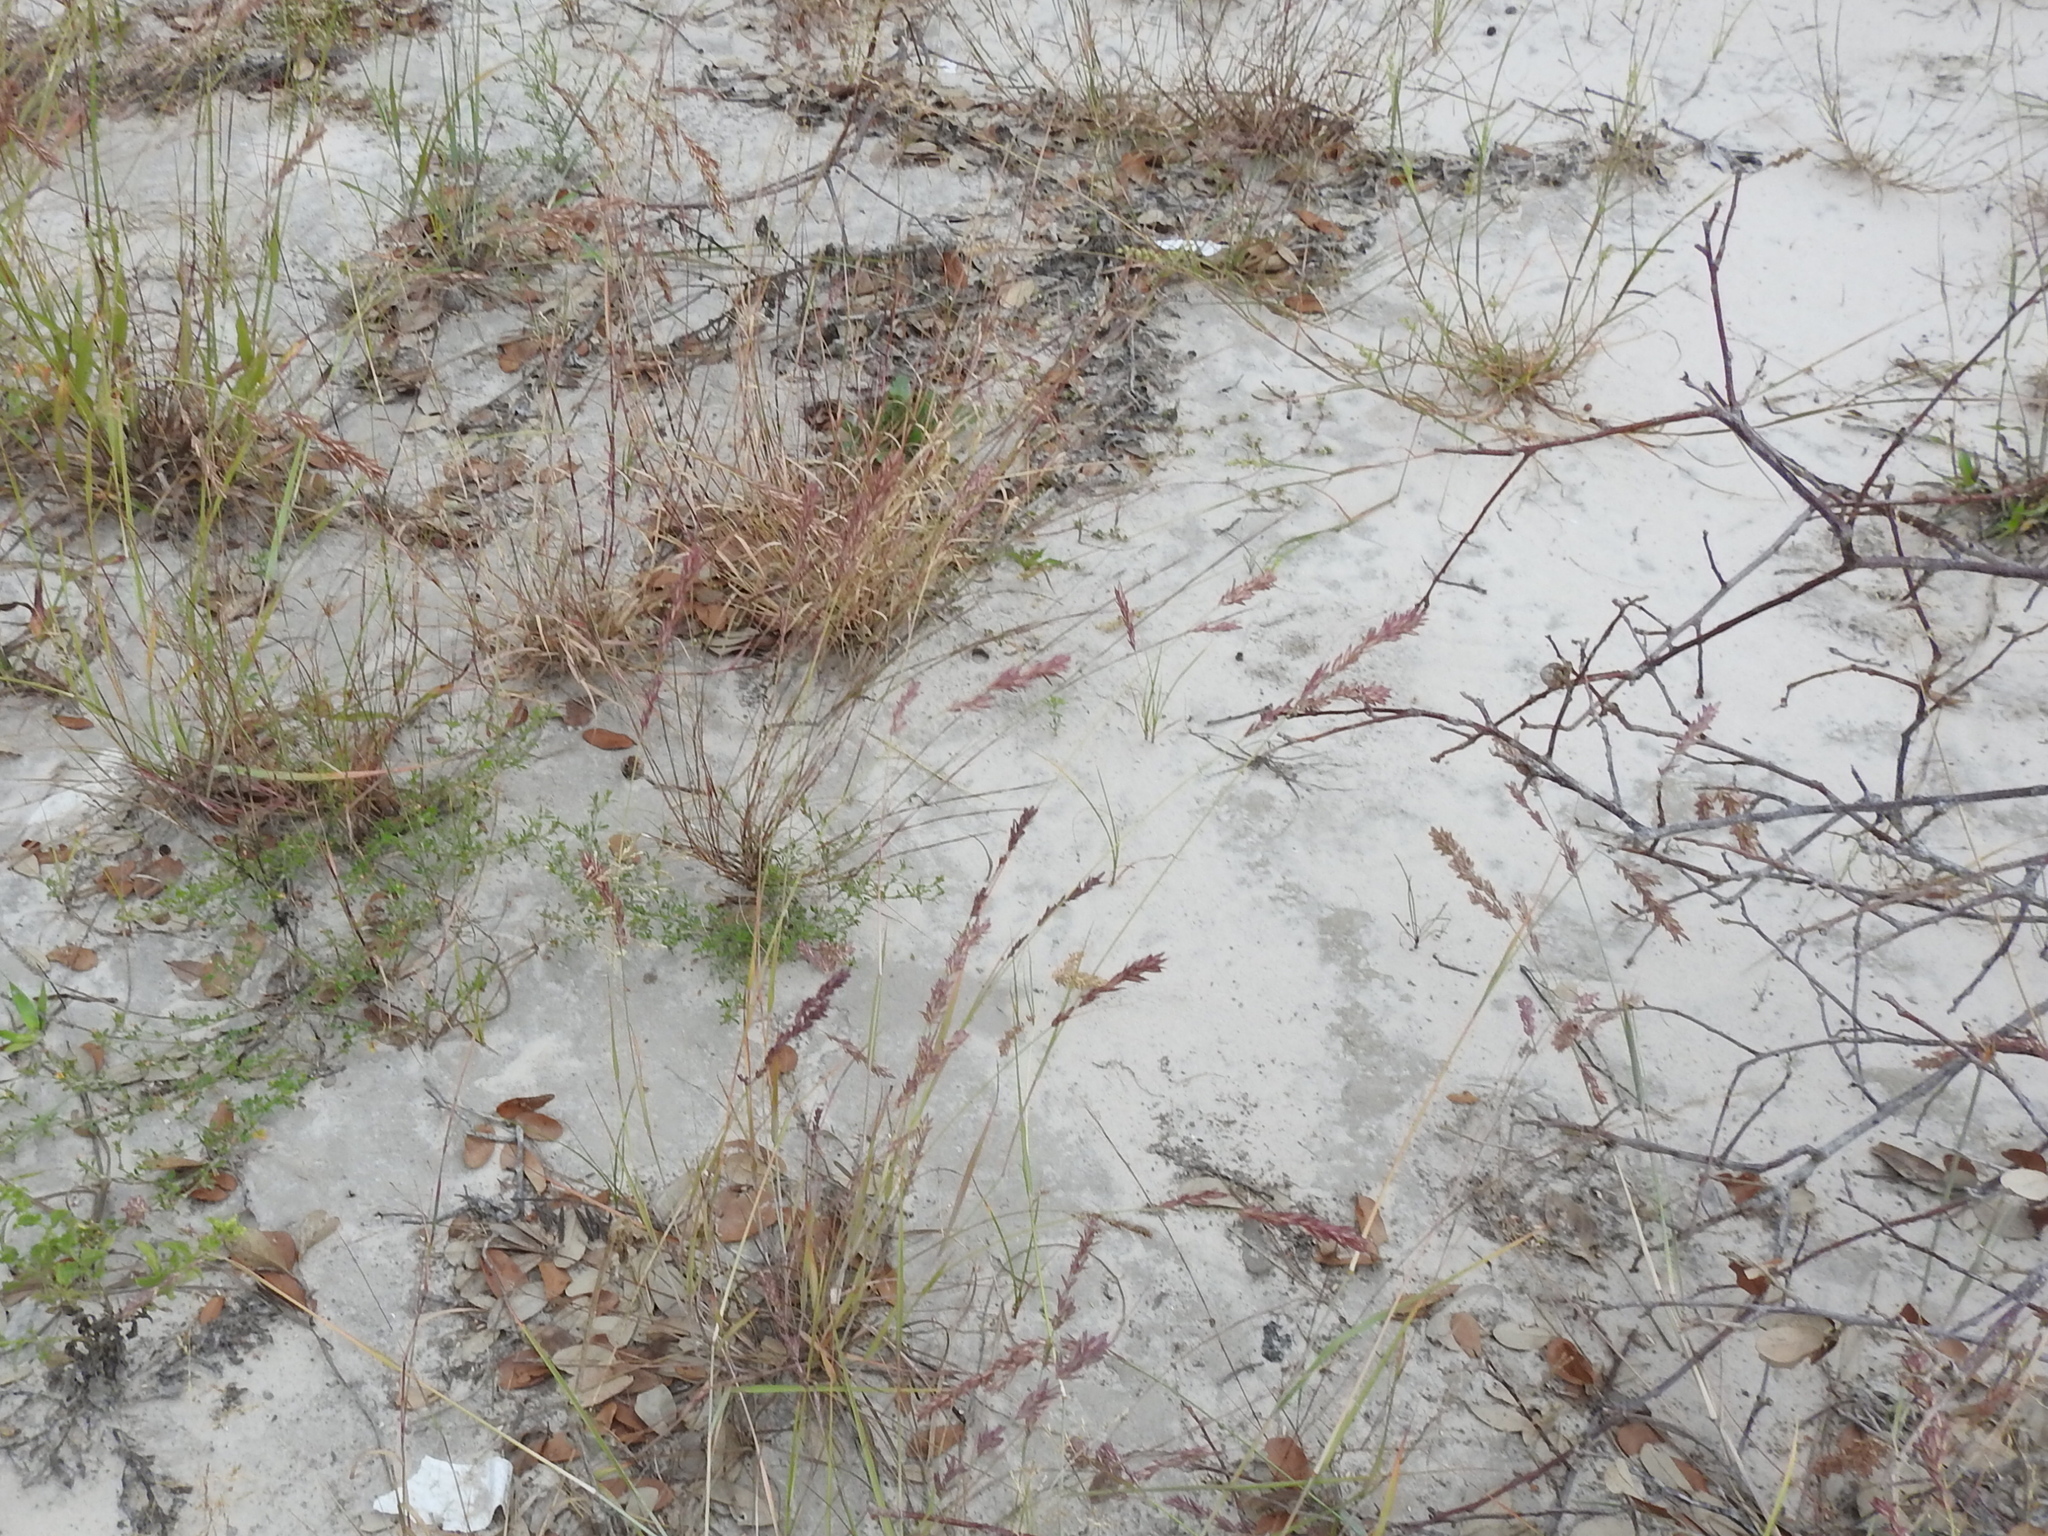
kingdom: Plantae
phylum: Tracheophyta
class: Liliopsida
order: Poales
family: Poaceae
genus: Eragrostis
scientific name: Eragrostis secundiflora
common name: Red love grass
